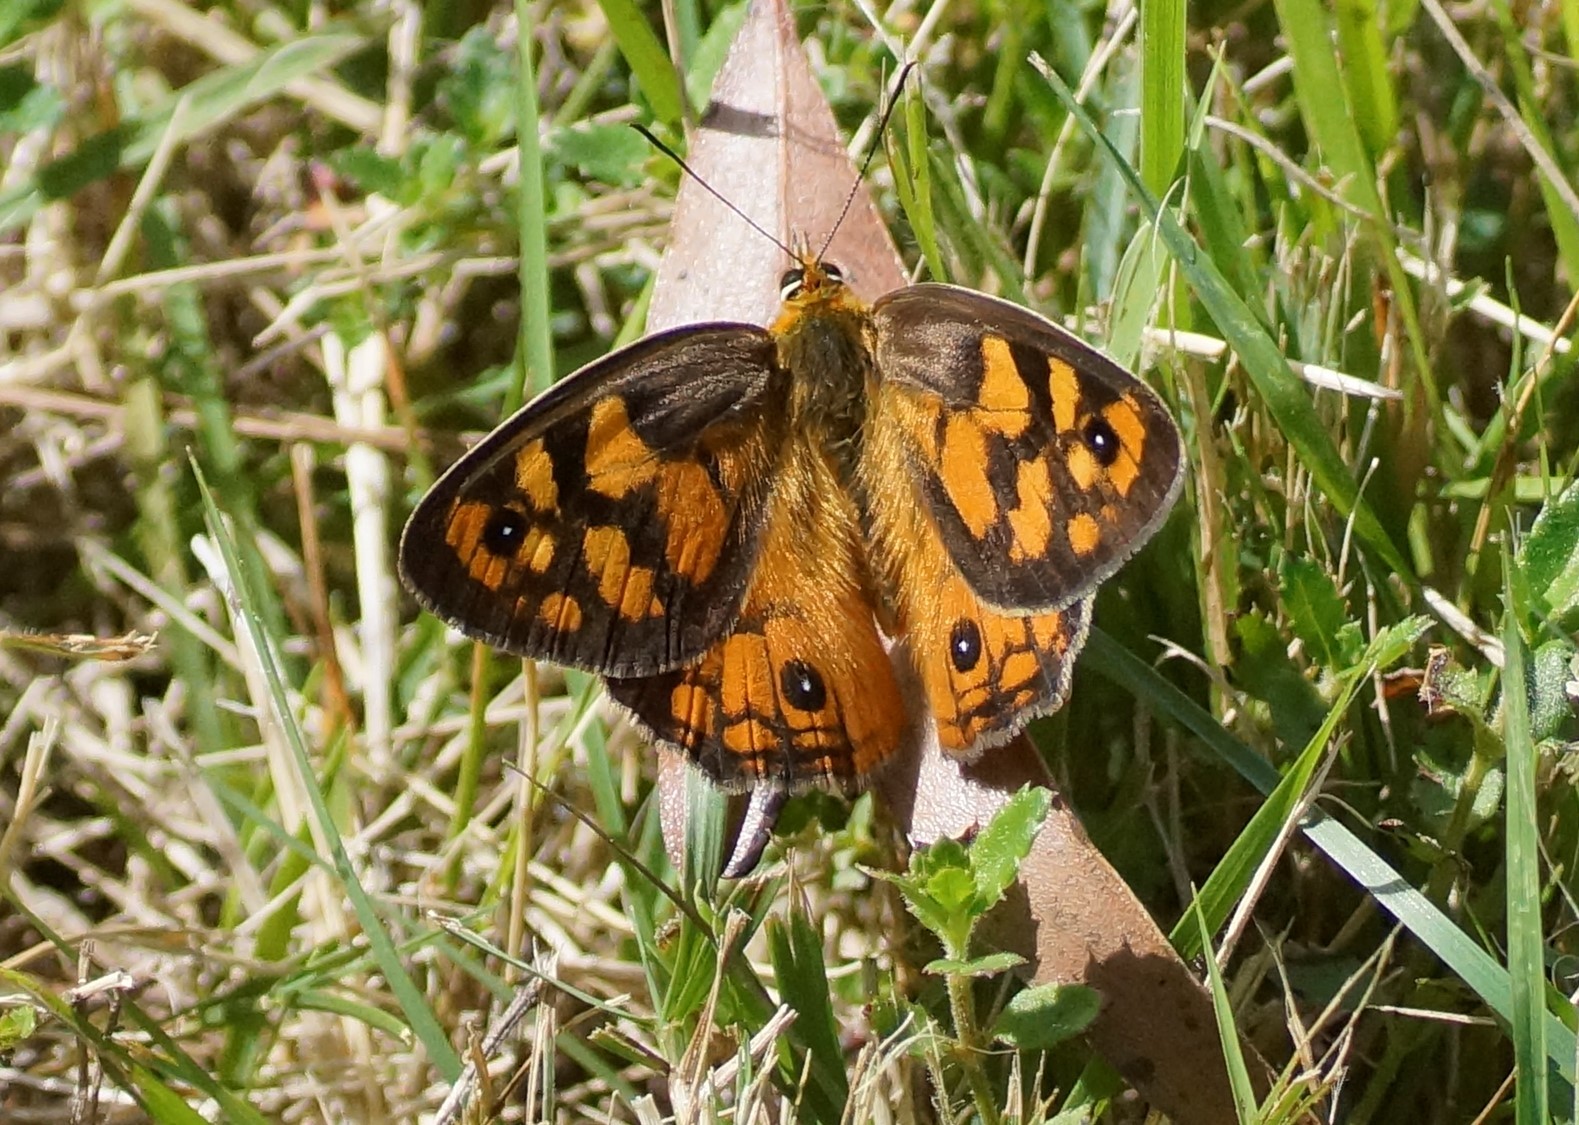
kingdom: Animalia
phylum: Arthropoda
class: Insecta
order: Lepidoptera
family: Nymphalidae
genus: Heteronympha
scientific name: Heteronympha penelope
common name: Shouldered brown
